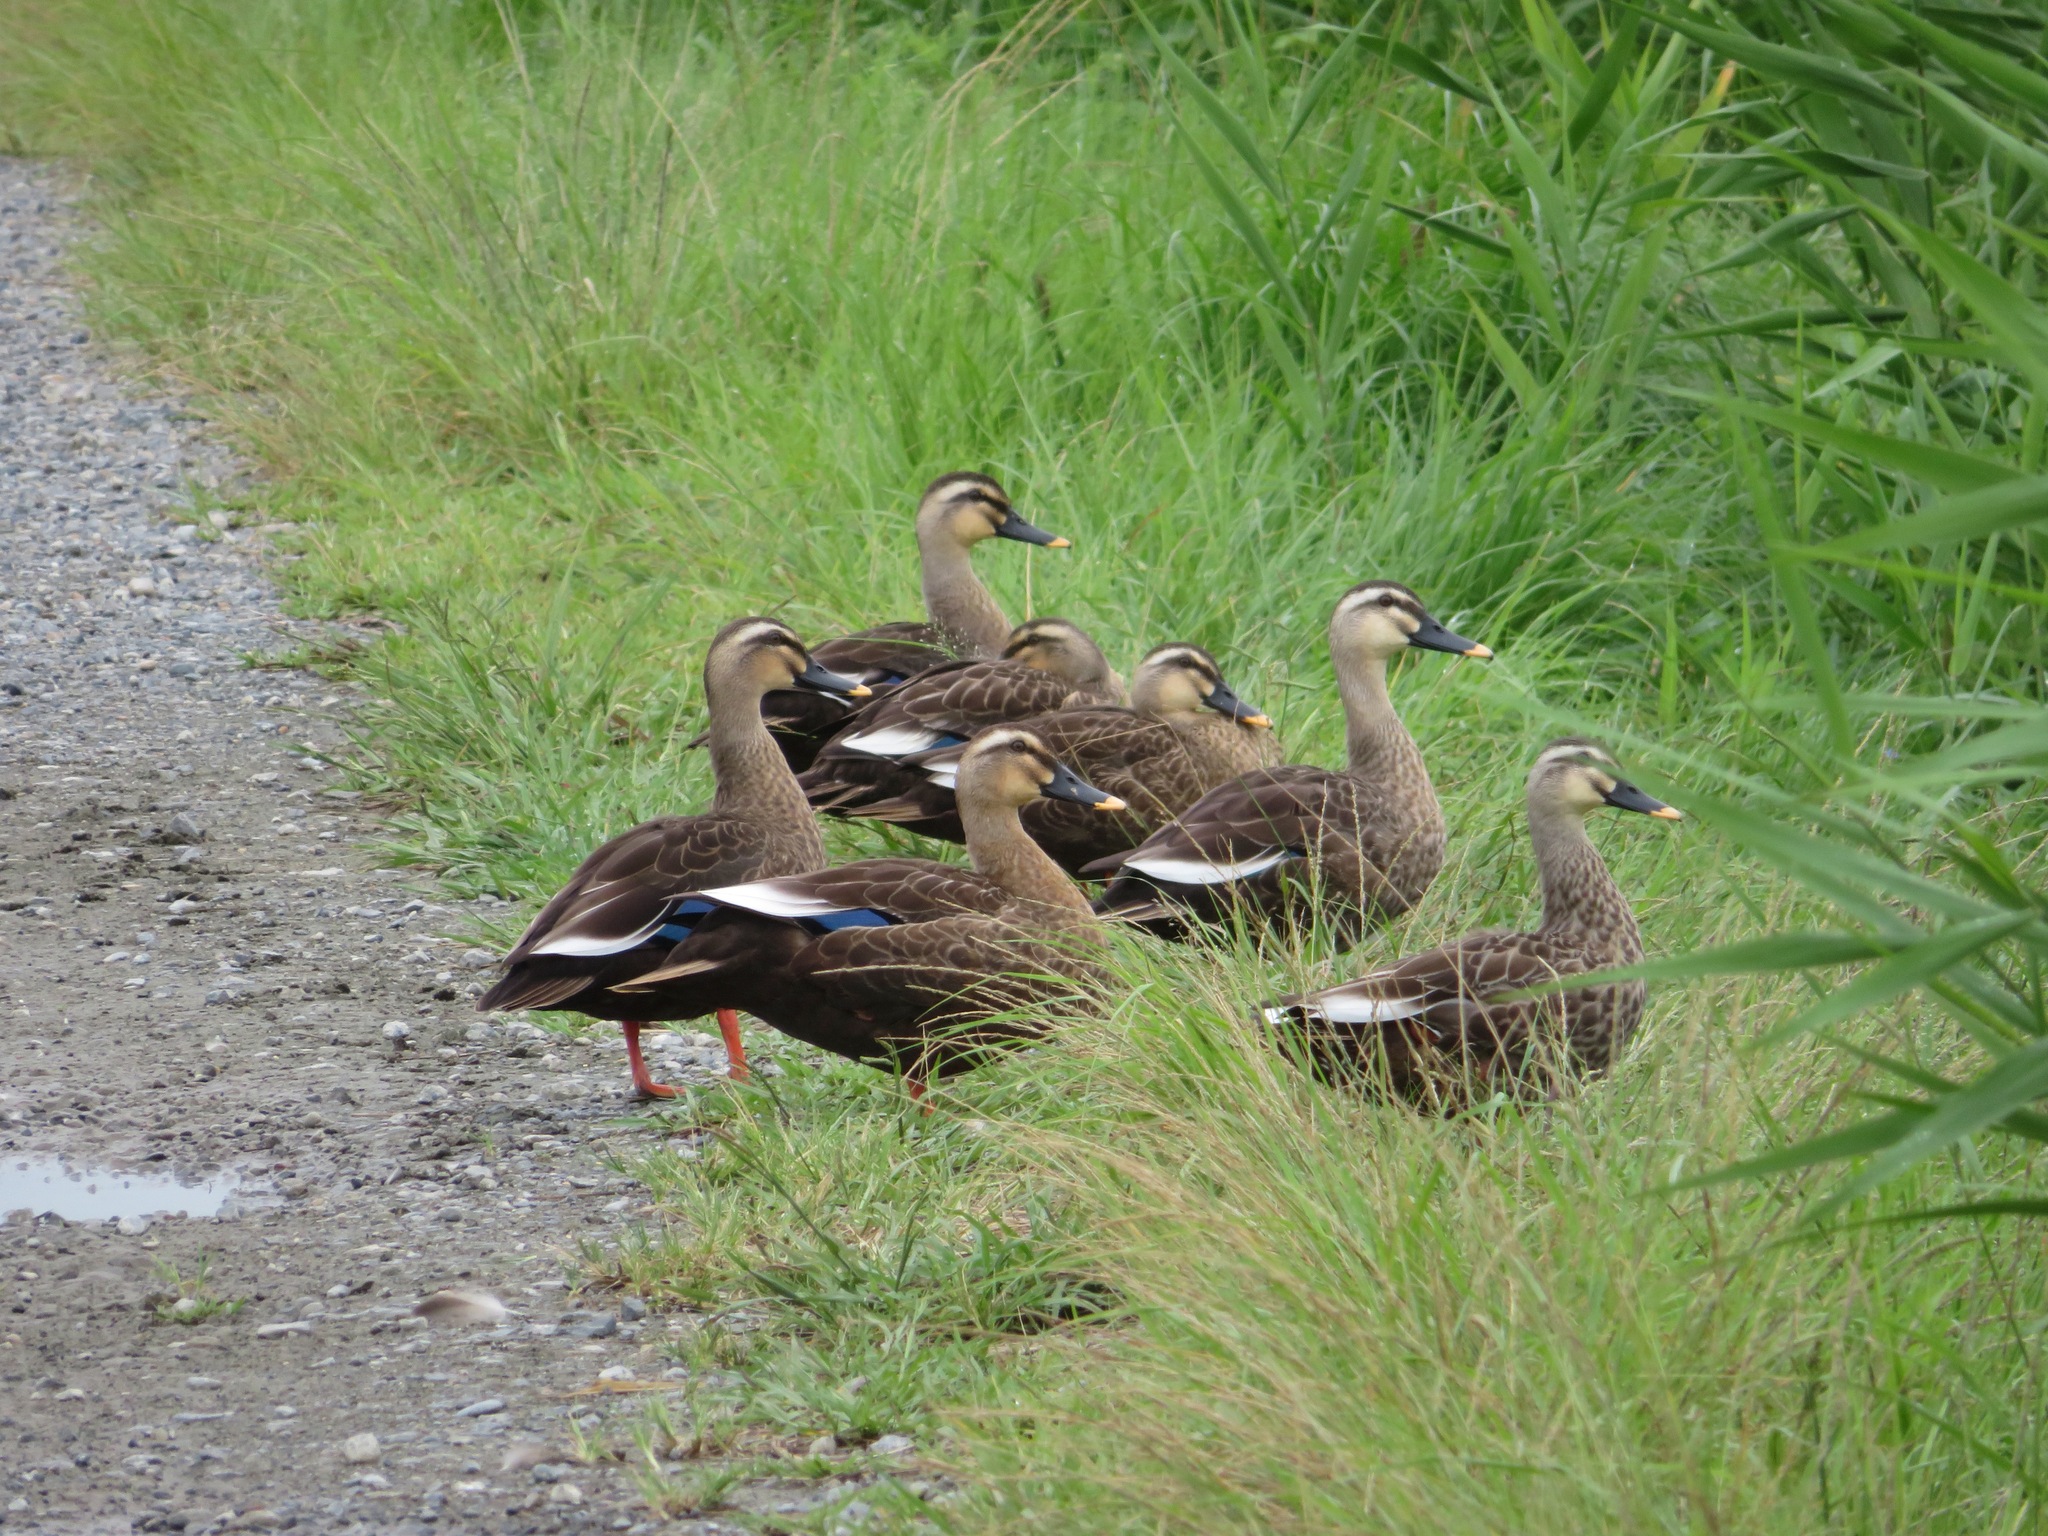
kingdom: Animalia
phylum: Chordata
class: Aves
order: Anseriformes
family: Anatidae
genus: Anas
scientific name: Anas zonorhyncha
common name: Eastern spot-billed duck
